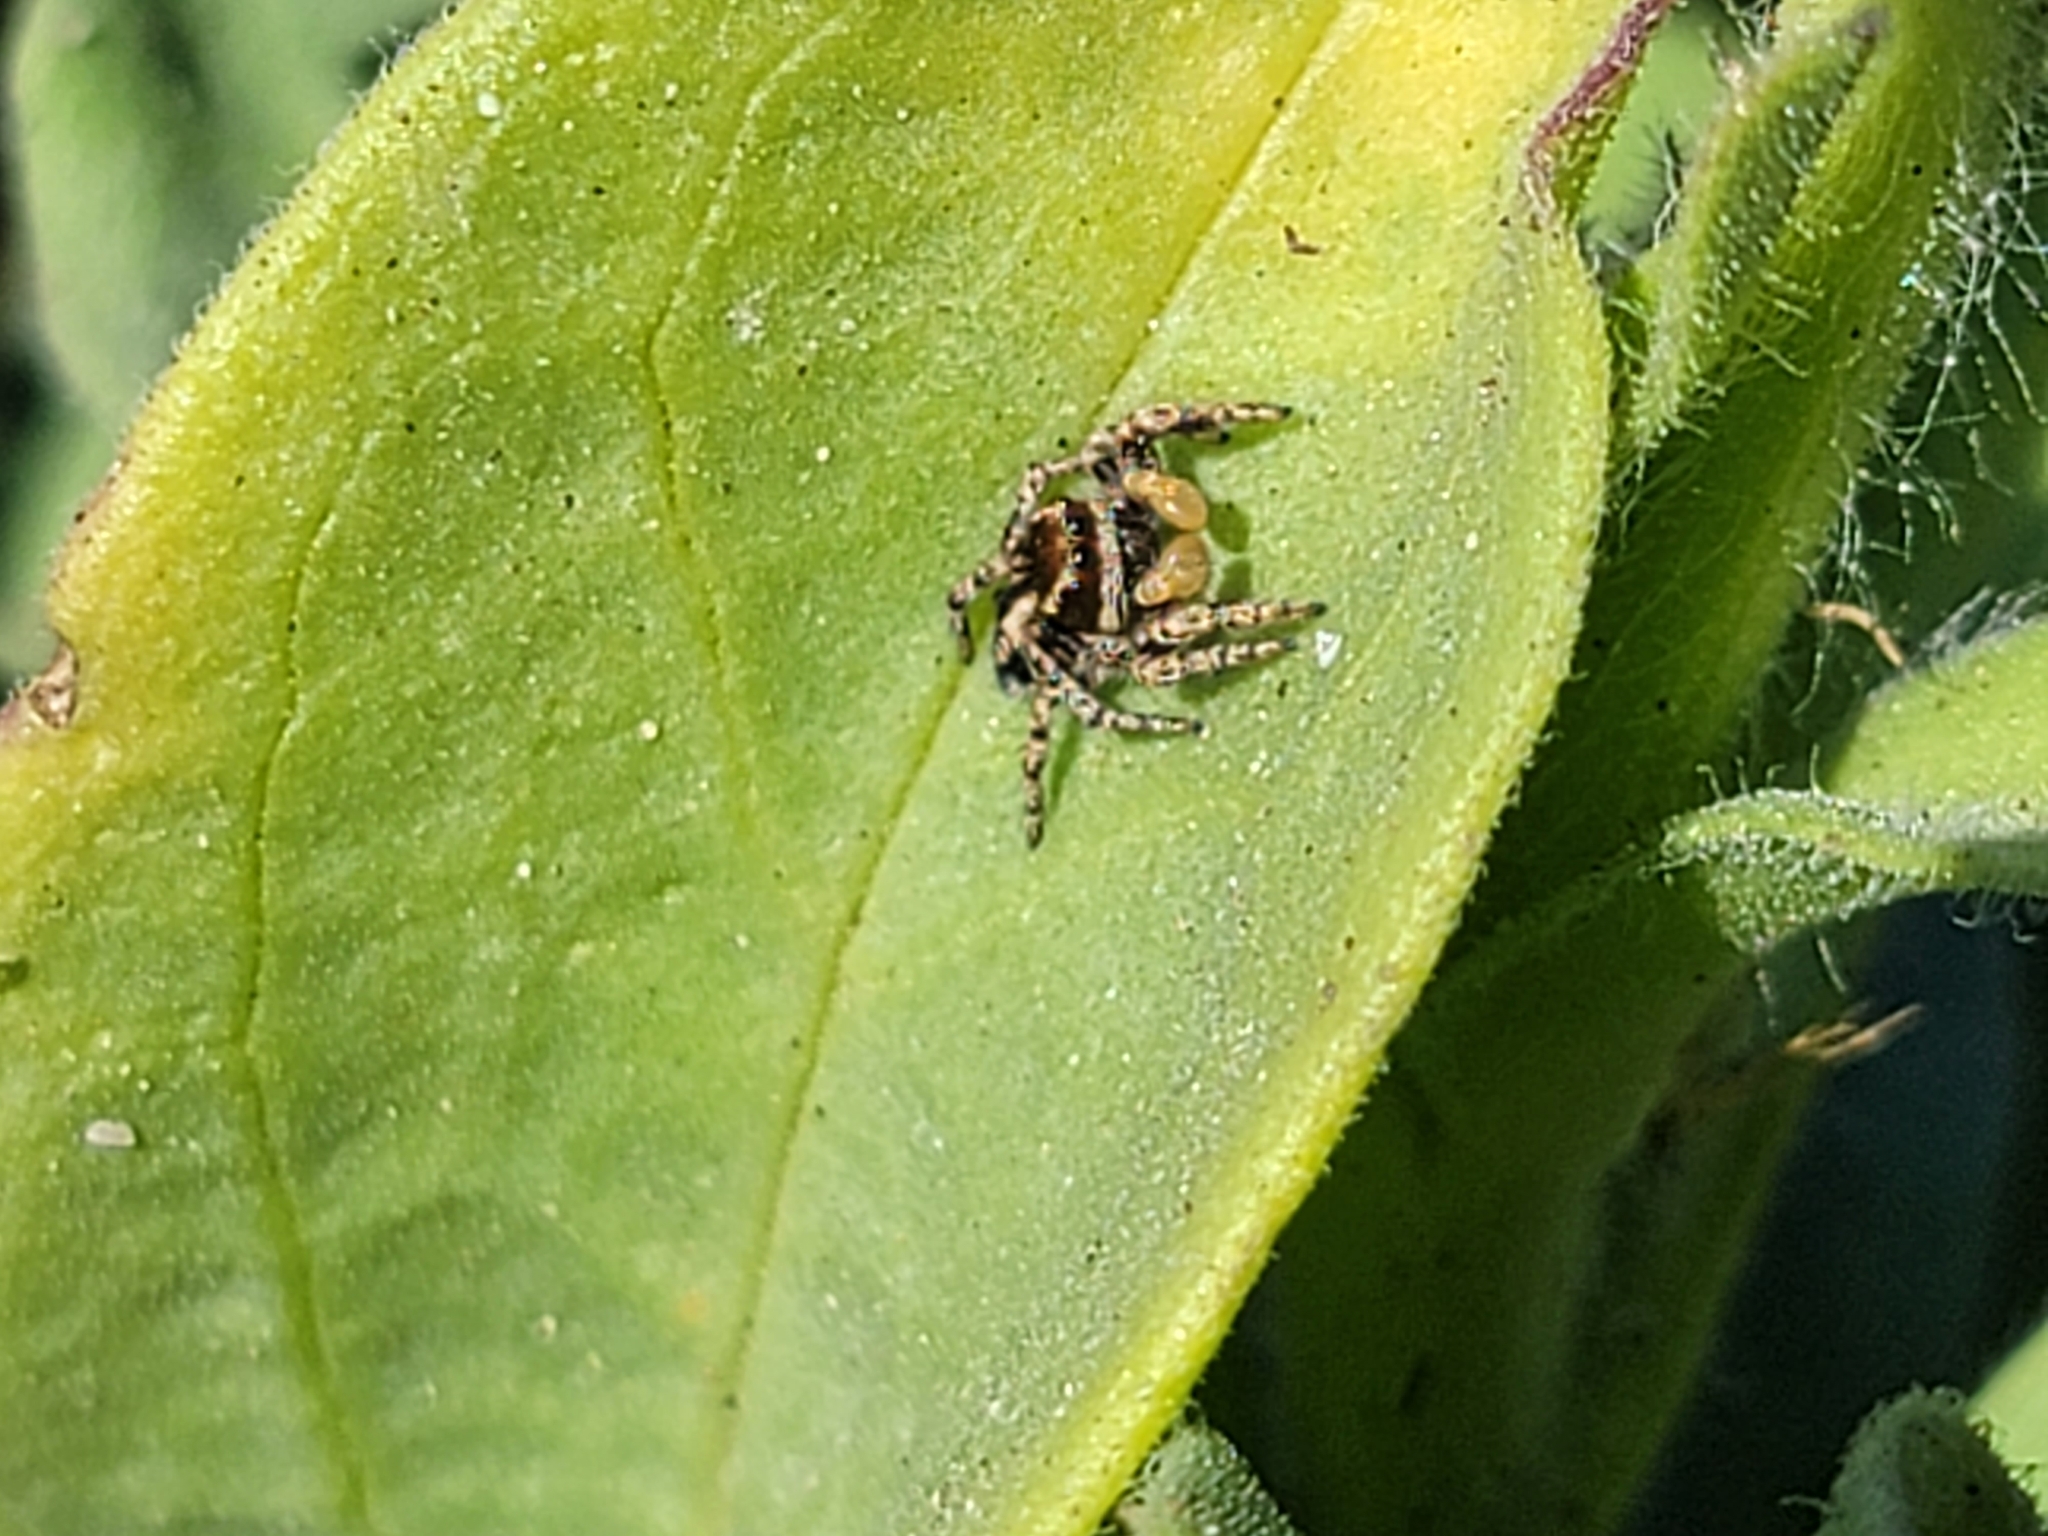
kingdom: Animalia
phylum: Arthropoda
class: Arachnida
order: Araneae
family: Salticidae
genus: Habronattus
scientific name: Habronattus peckhami
